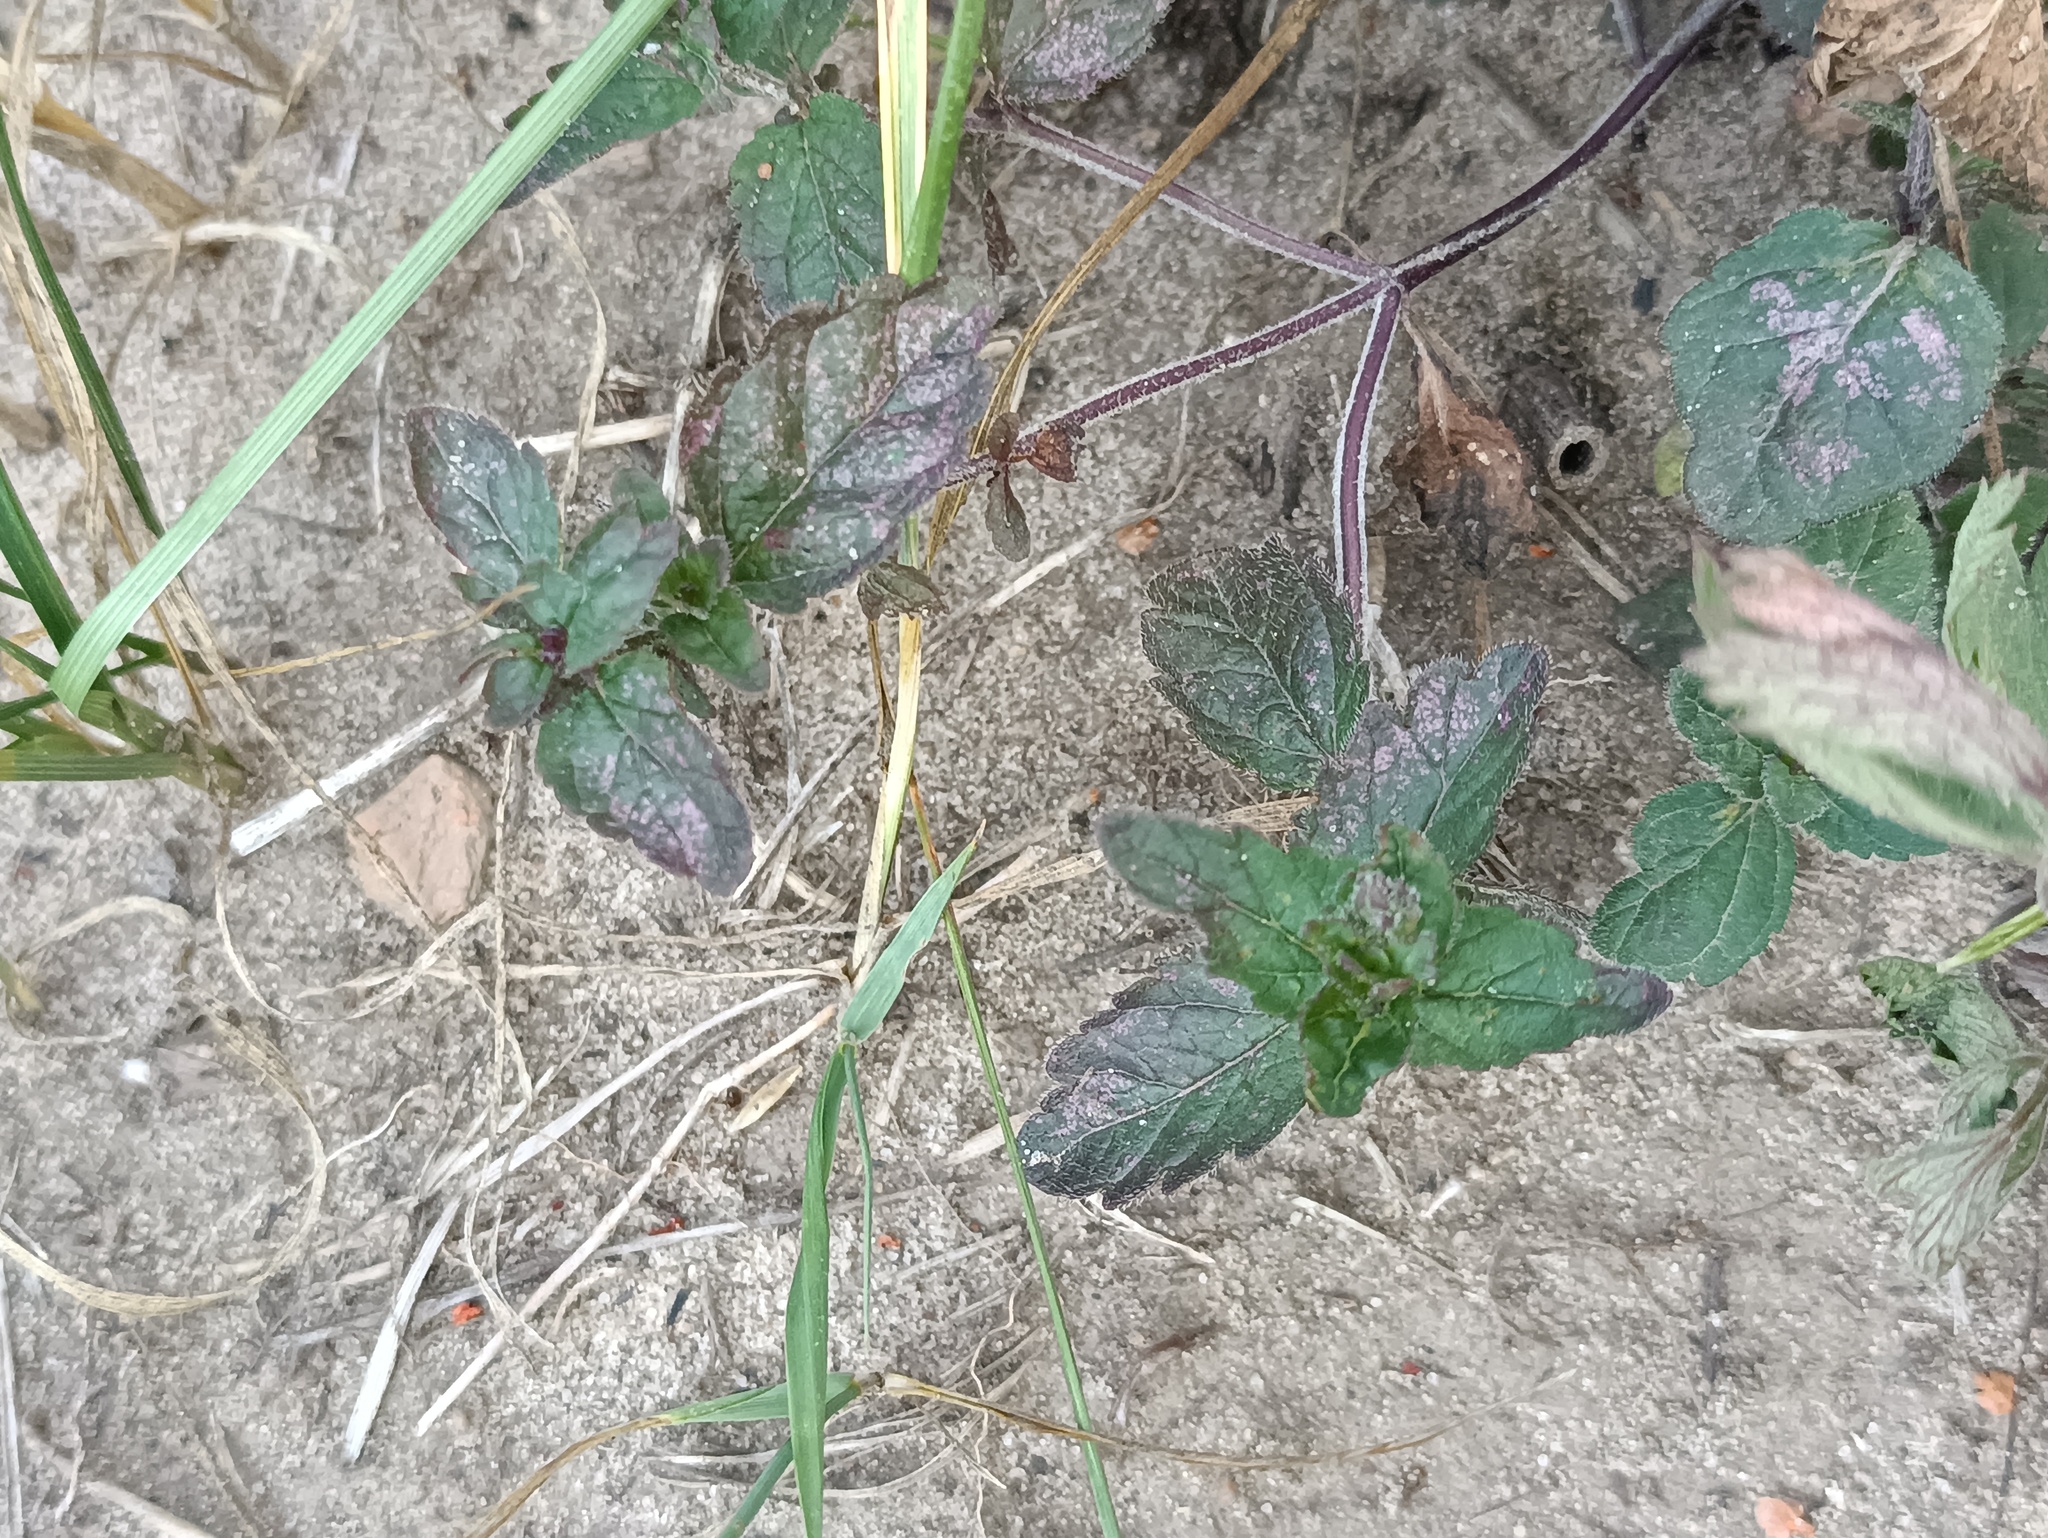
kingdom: Plantae
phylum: Tracheophyta
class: Magnoliopsida
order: Lamiales
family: Lamiaceae
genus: Mentha
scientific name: Mentha arvensis
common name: Corn mint
